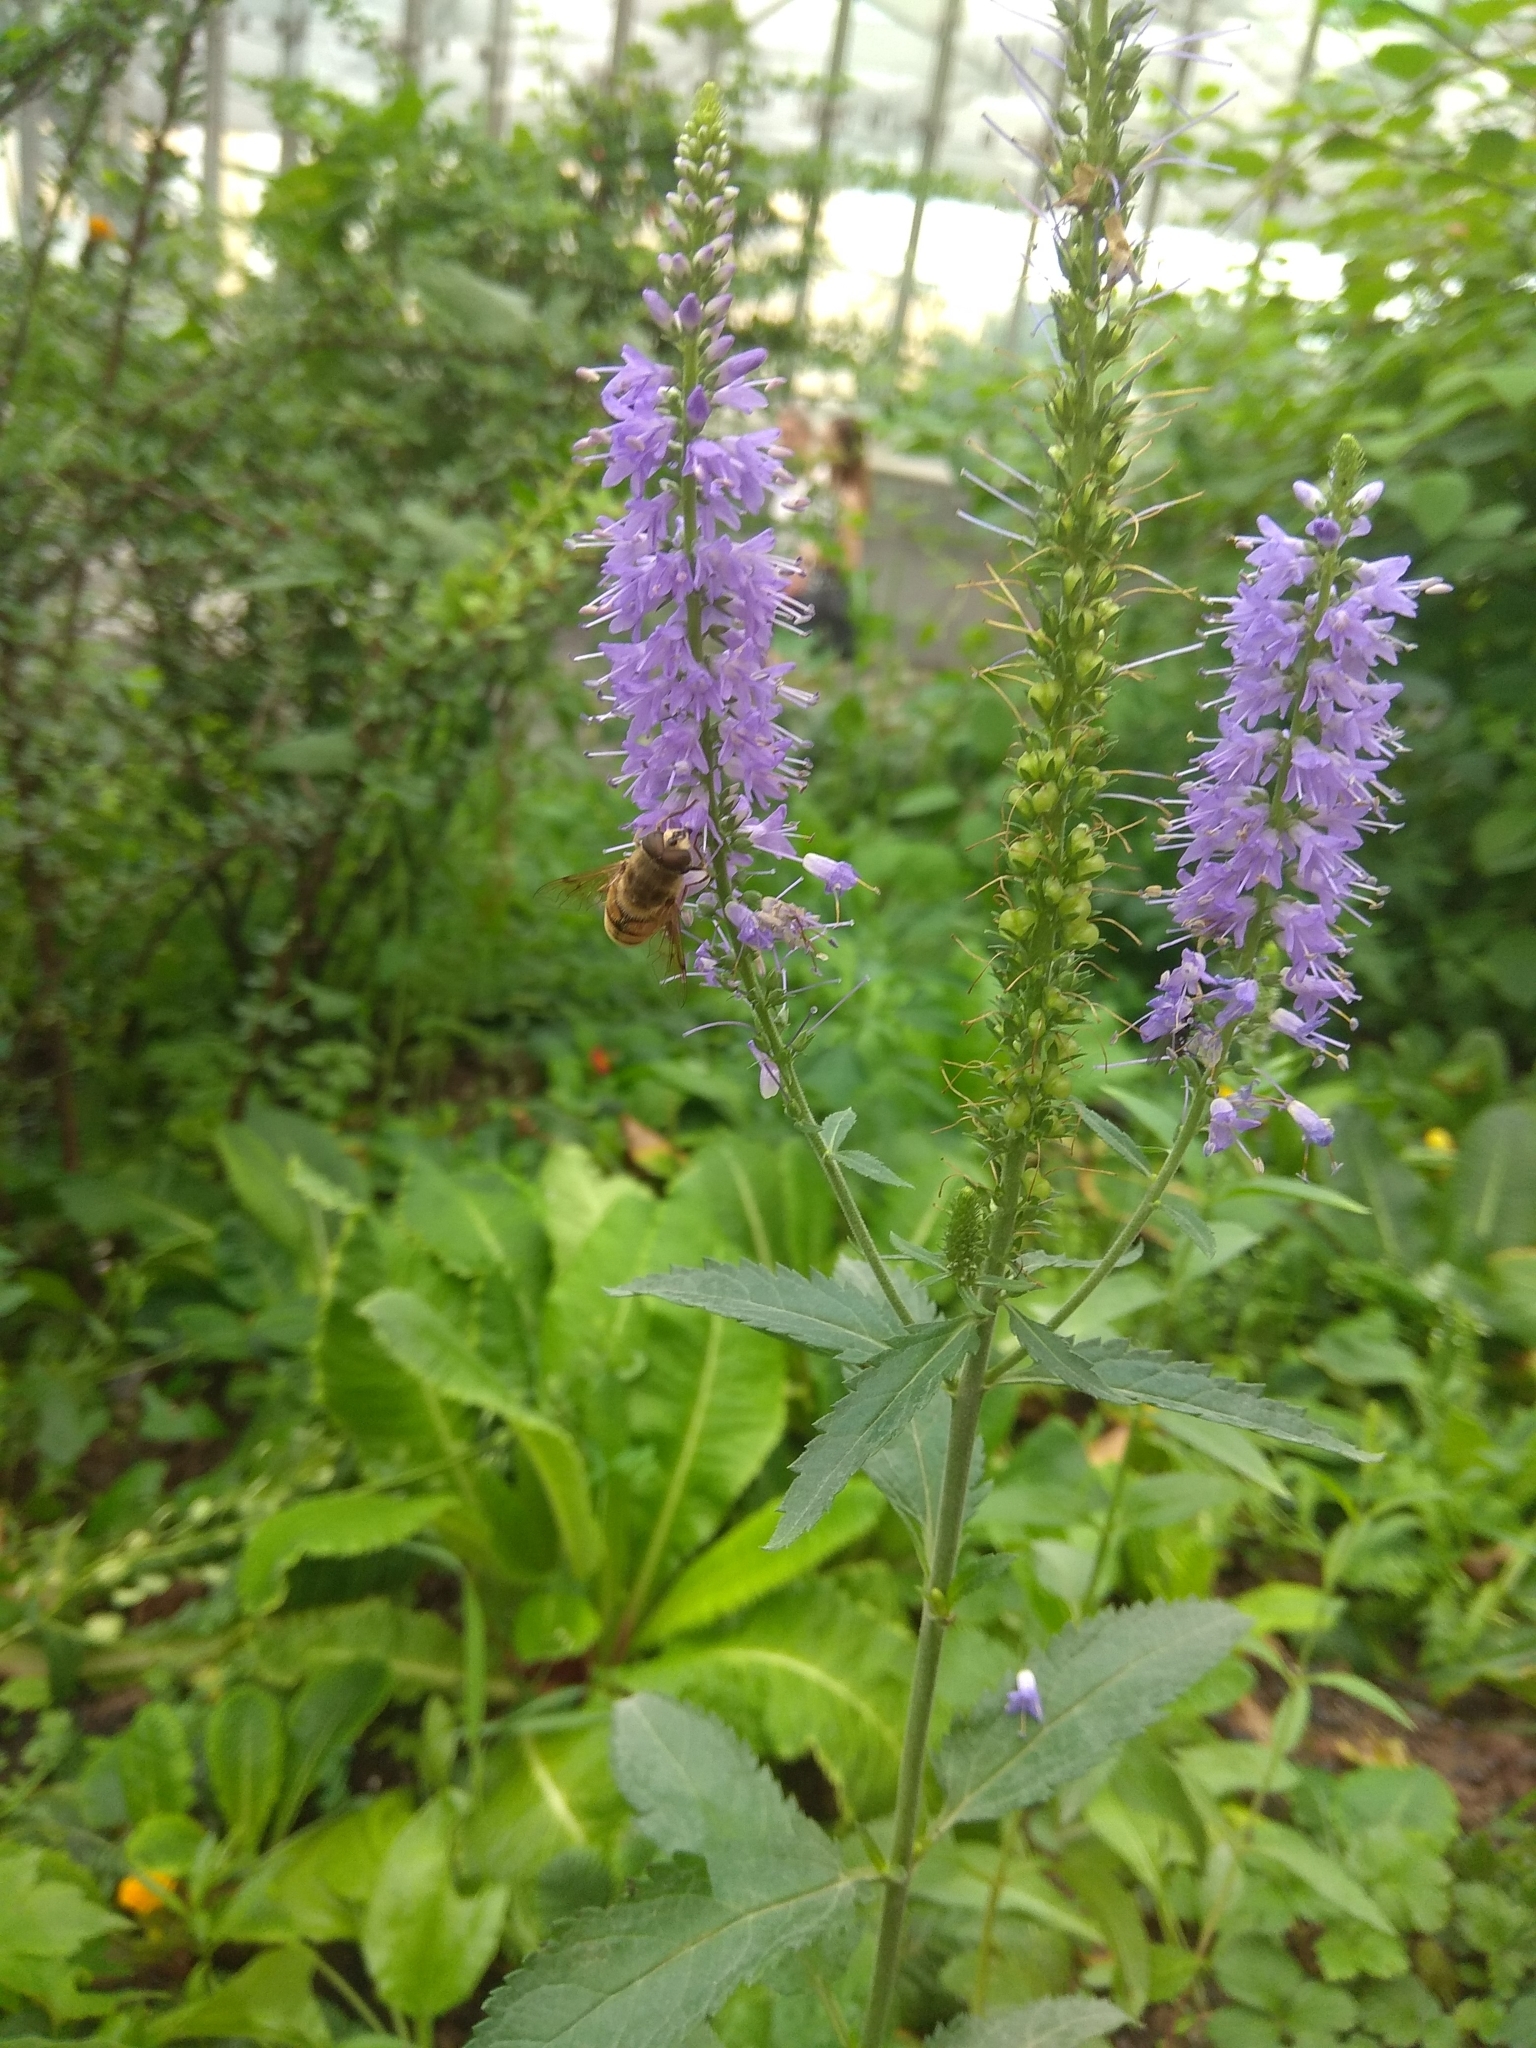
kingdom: Animalia
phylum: Arthropoda
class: Insecta
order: Diptera
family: Syrphidae
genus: Eristalis
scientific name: Eristalis tenax
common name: Drone fly
